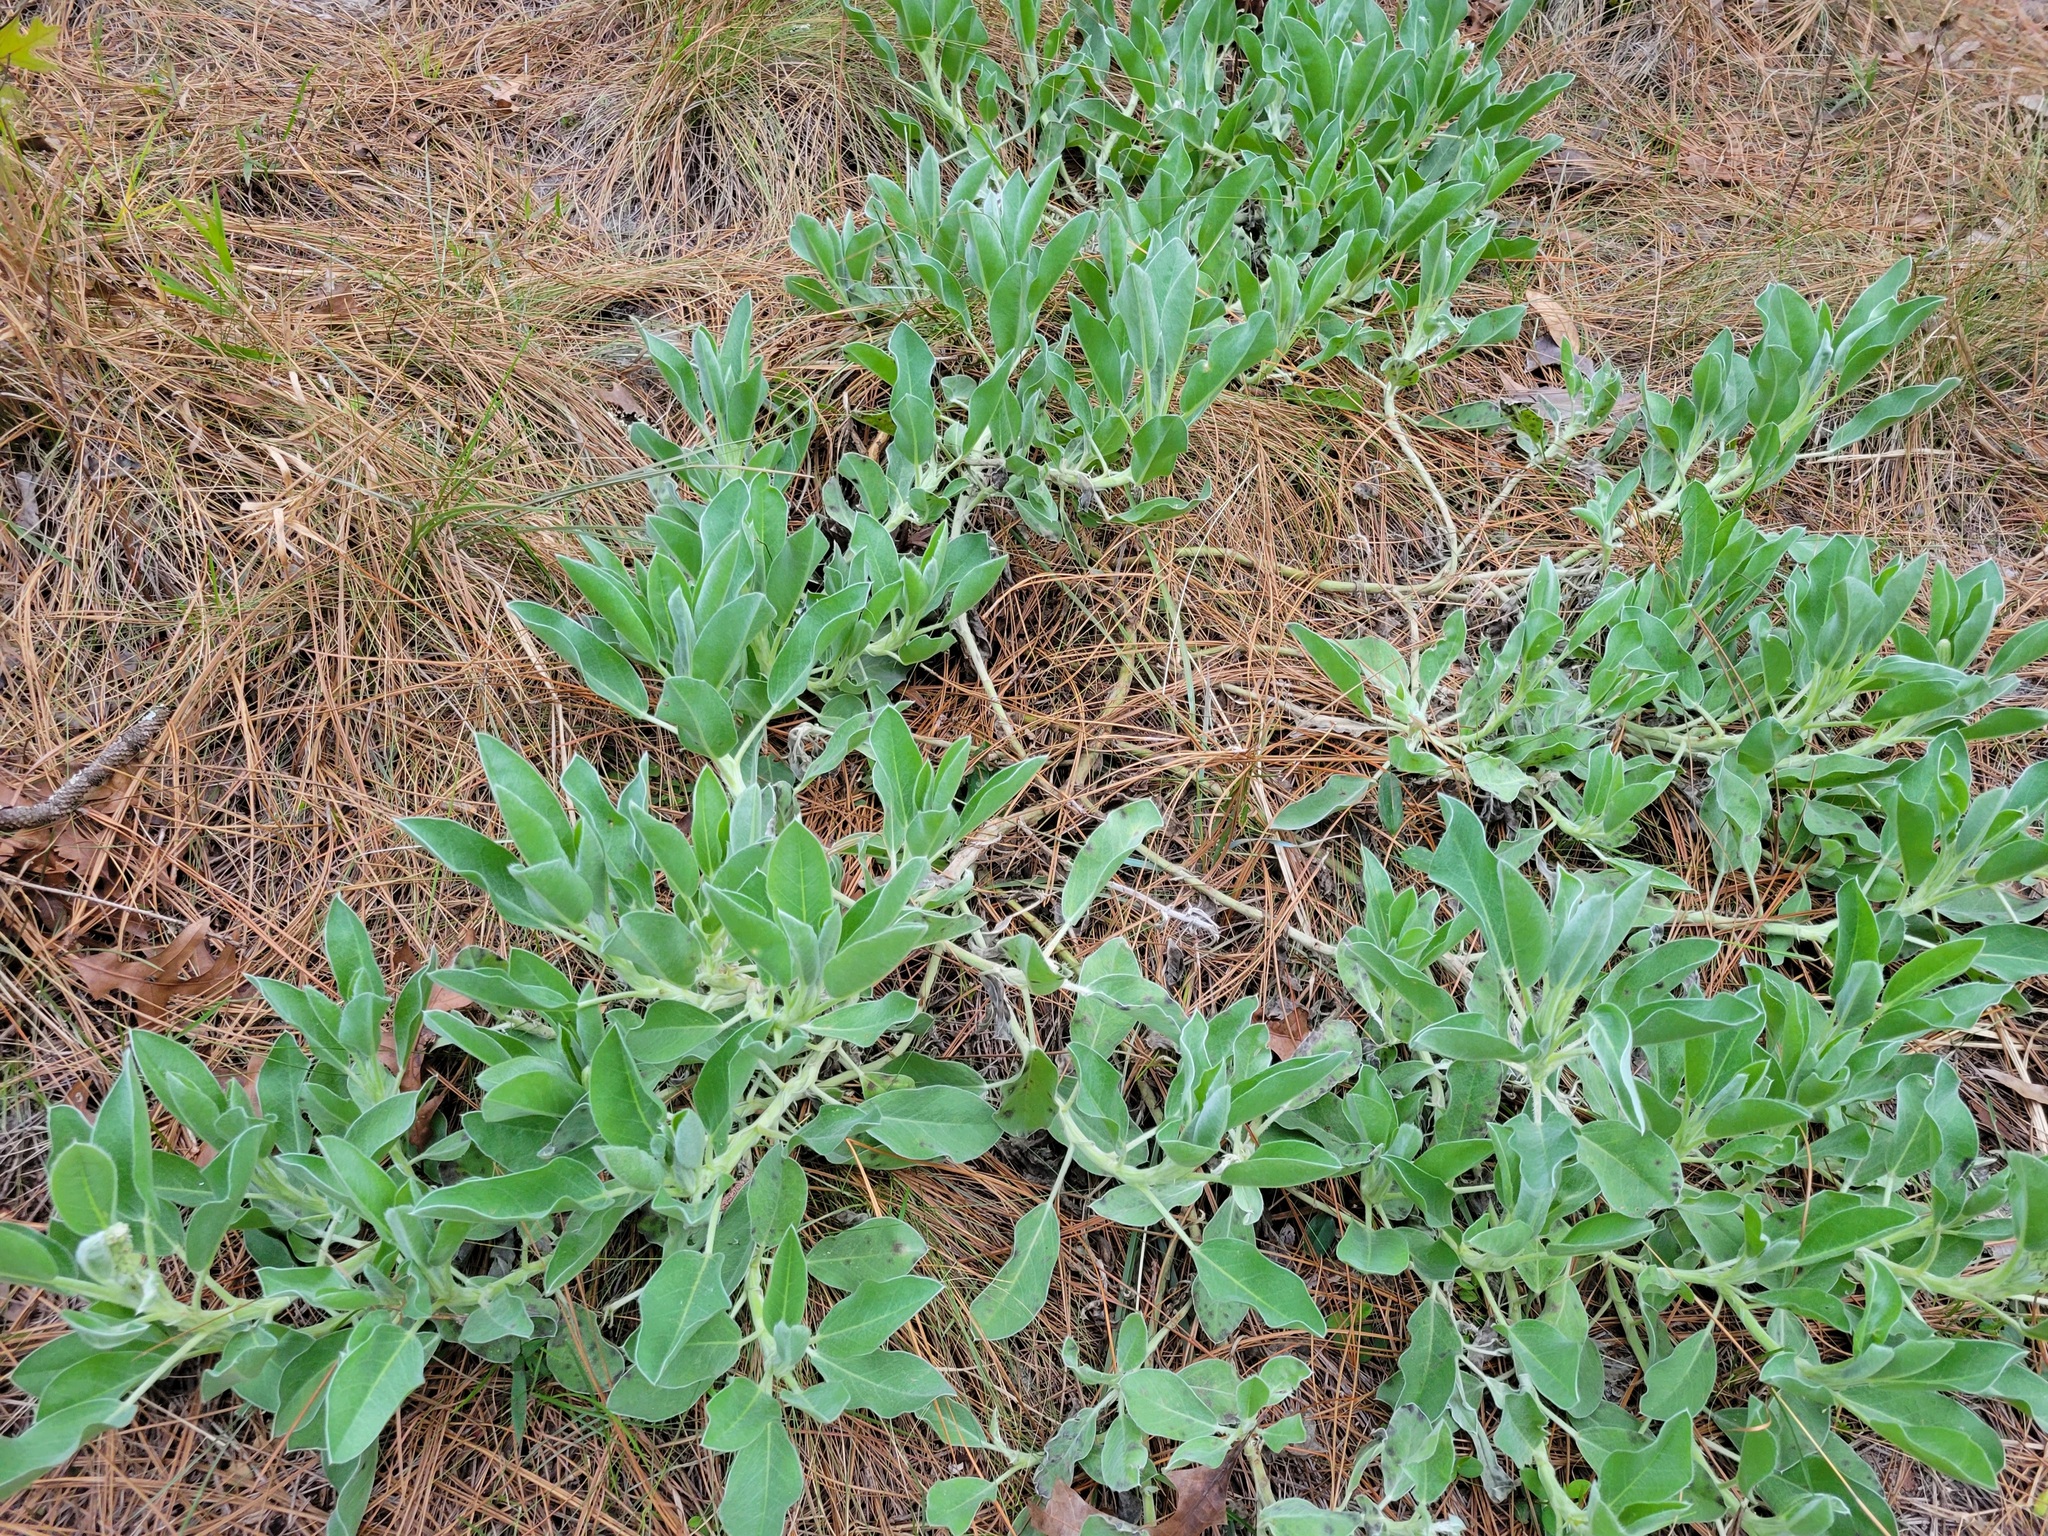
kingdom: Plantae
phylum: Tracheophyta
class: Magnoliopsida
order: Fabales
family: Fabaceae
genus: Lupinus
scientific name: Lupinus
